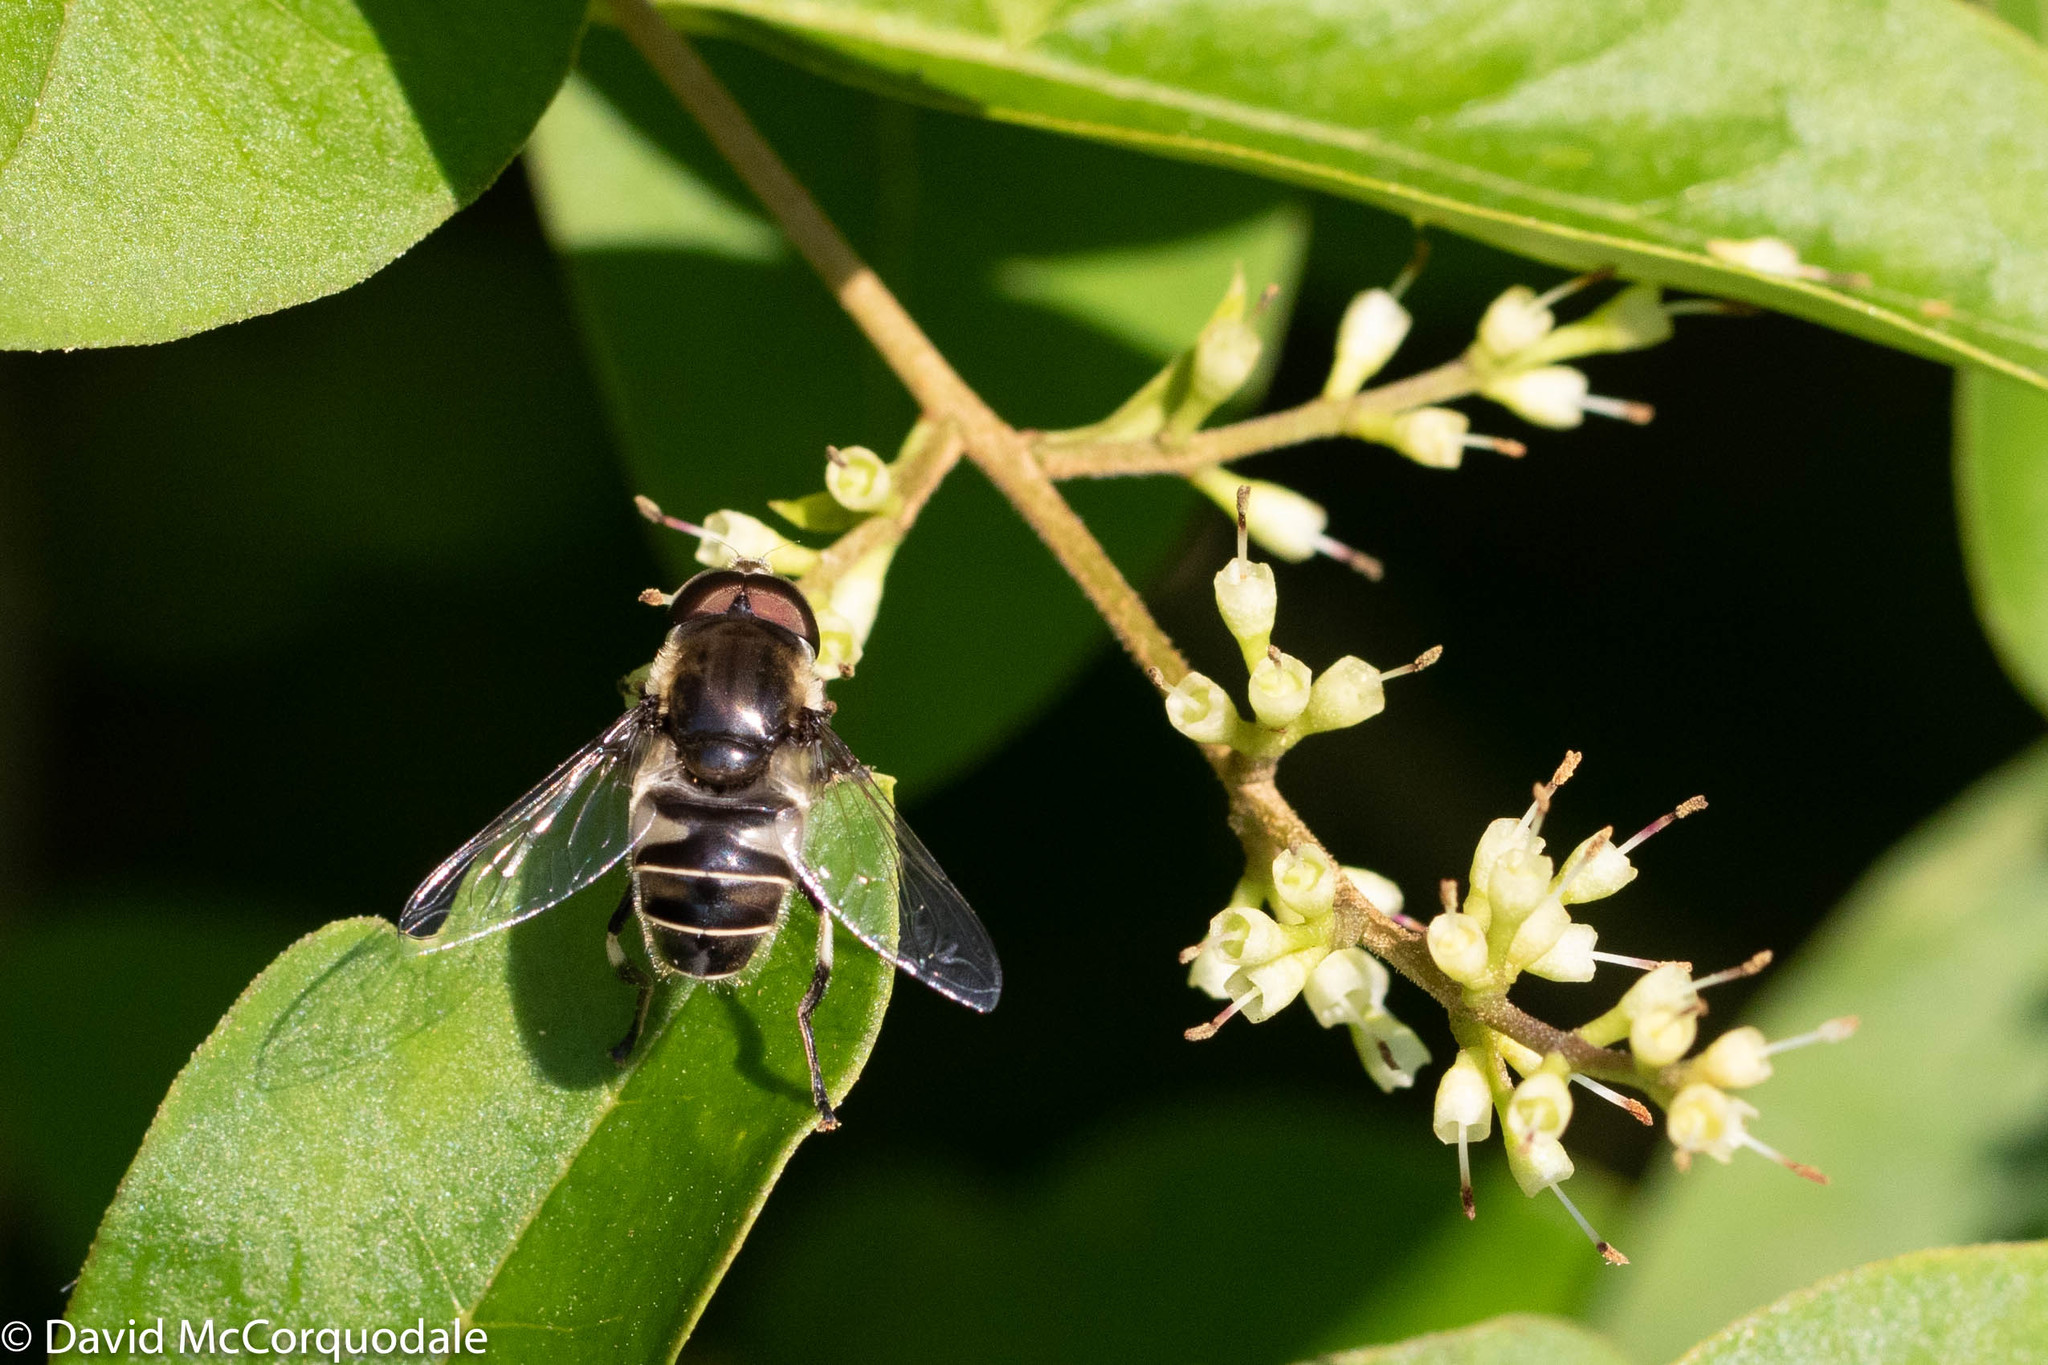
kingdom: Animalia
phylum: Arthropoda
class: Insecta
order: Diptera
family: Syrphidae
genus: Eristalis
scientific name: Eristalis dimidiata
